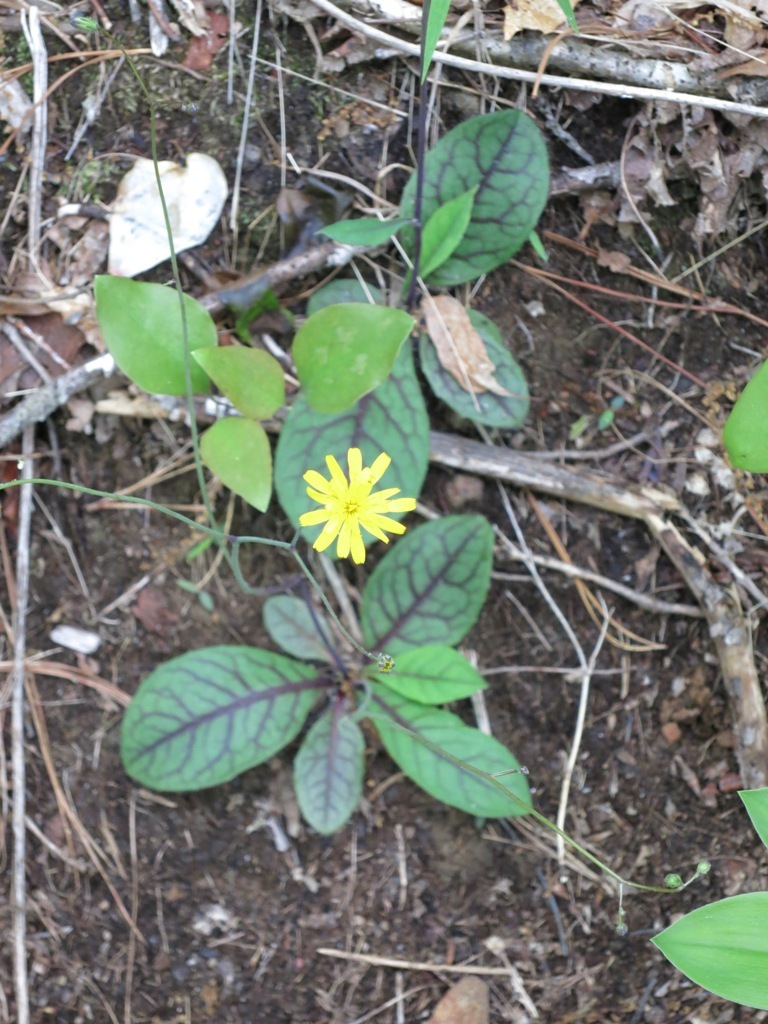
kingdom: Plantae
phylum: Tracheophyta
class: Magnoliopsida
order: Asterales
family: Asteraceae
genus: Hieracium
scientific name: Hieracium venosum
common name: Rattlesnake hawkweed
